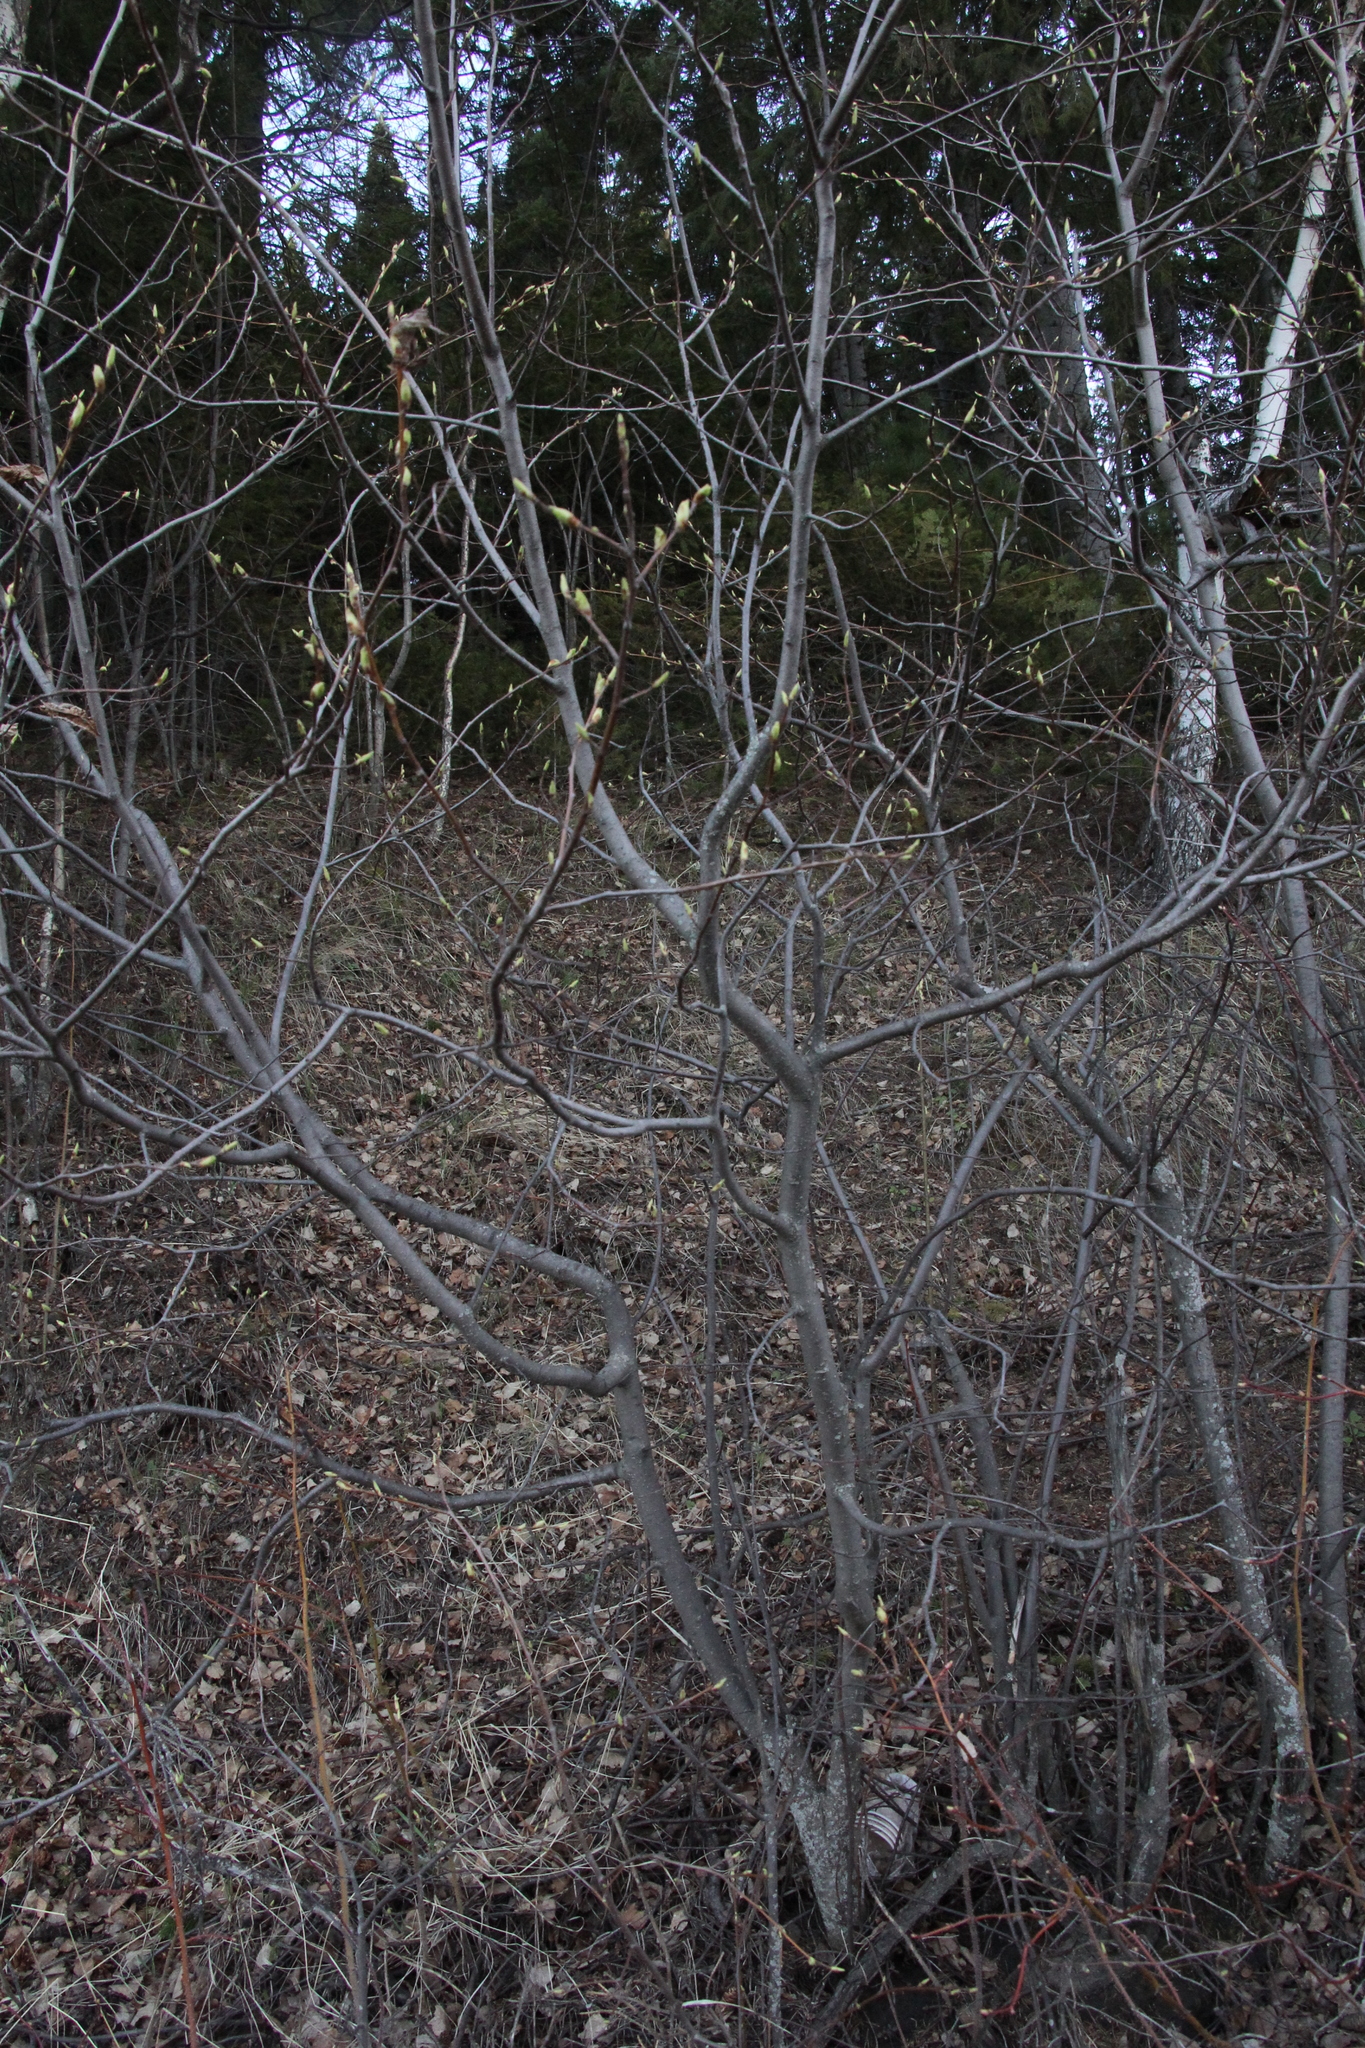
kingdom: Plantae
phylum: Tracheophyta
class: Magnoliopsida
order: Rosales
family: Rosaceae
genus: Prunus
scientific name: Prunus padus
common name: Bird cherry
